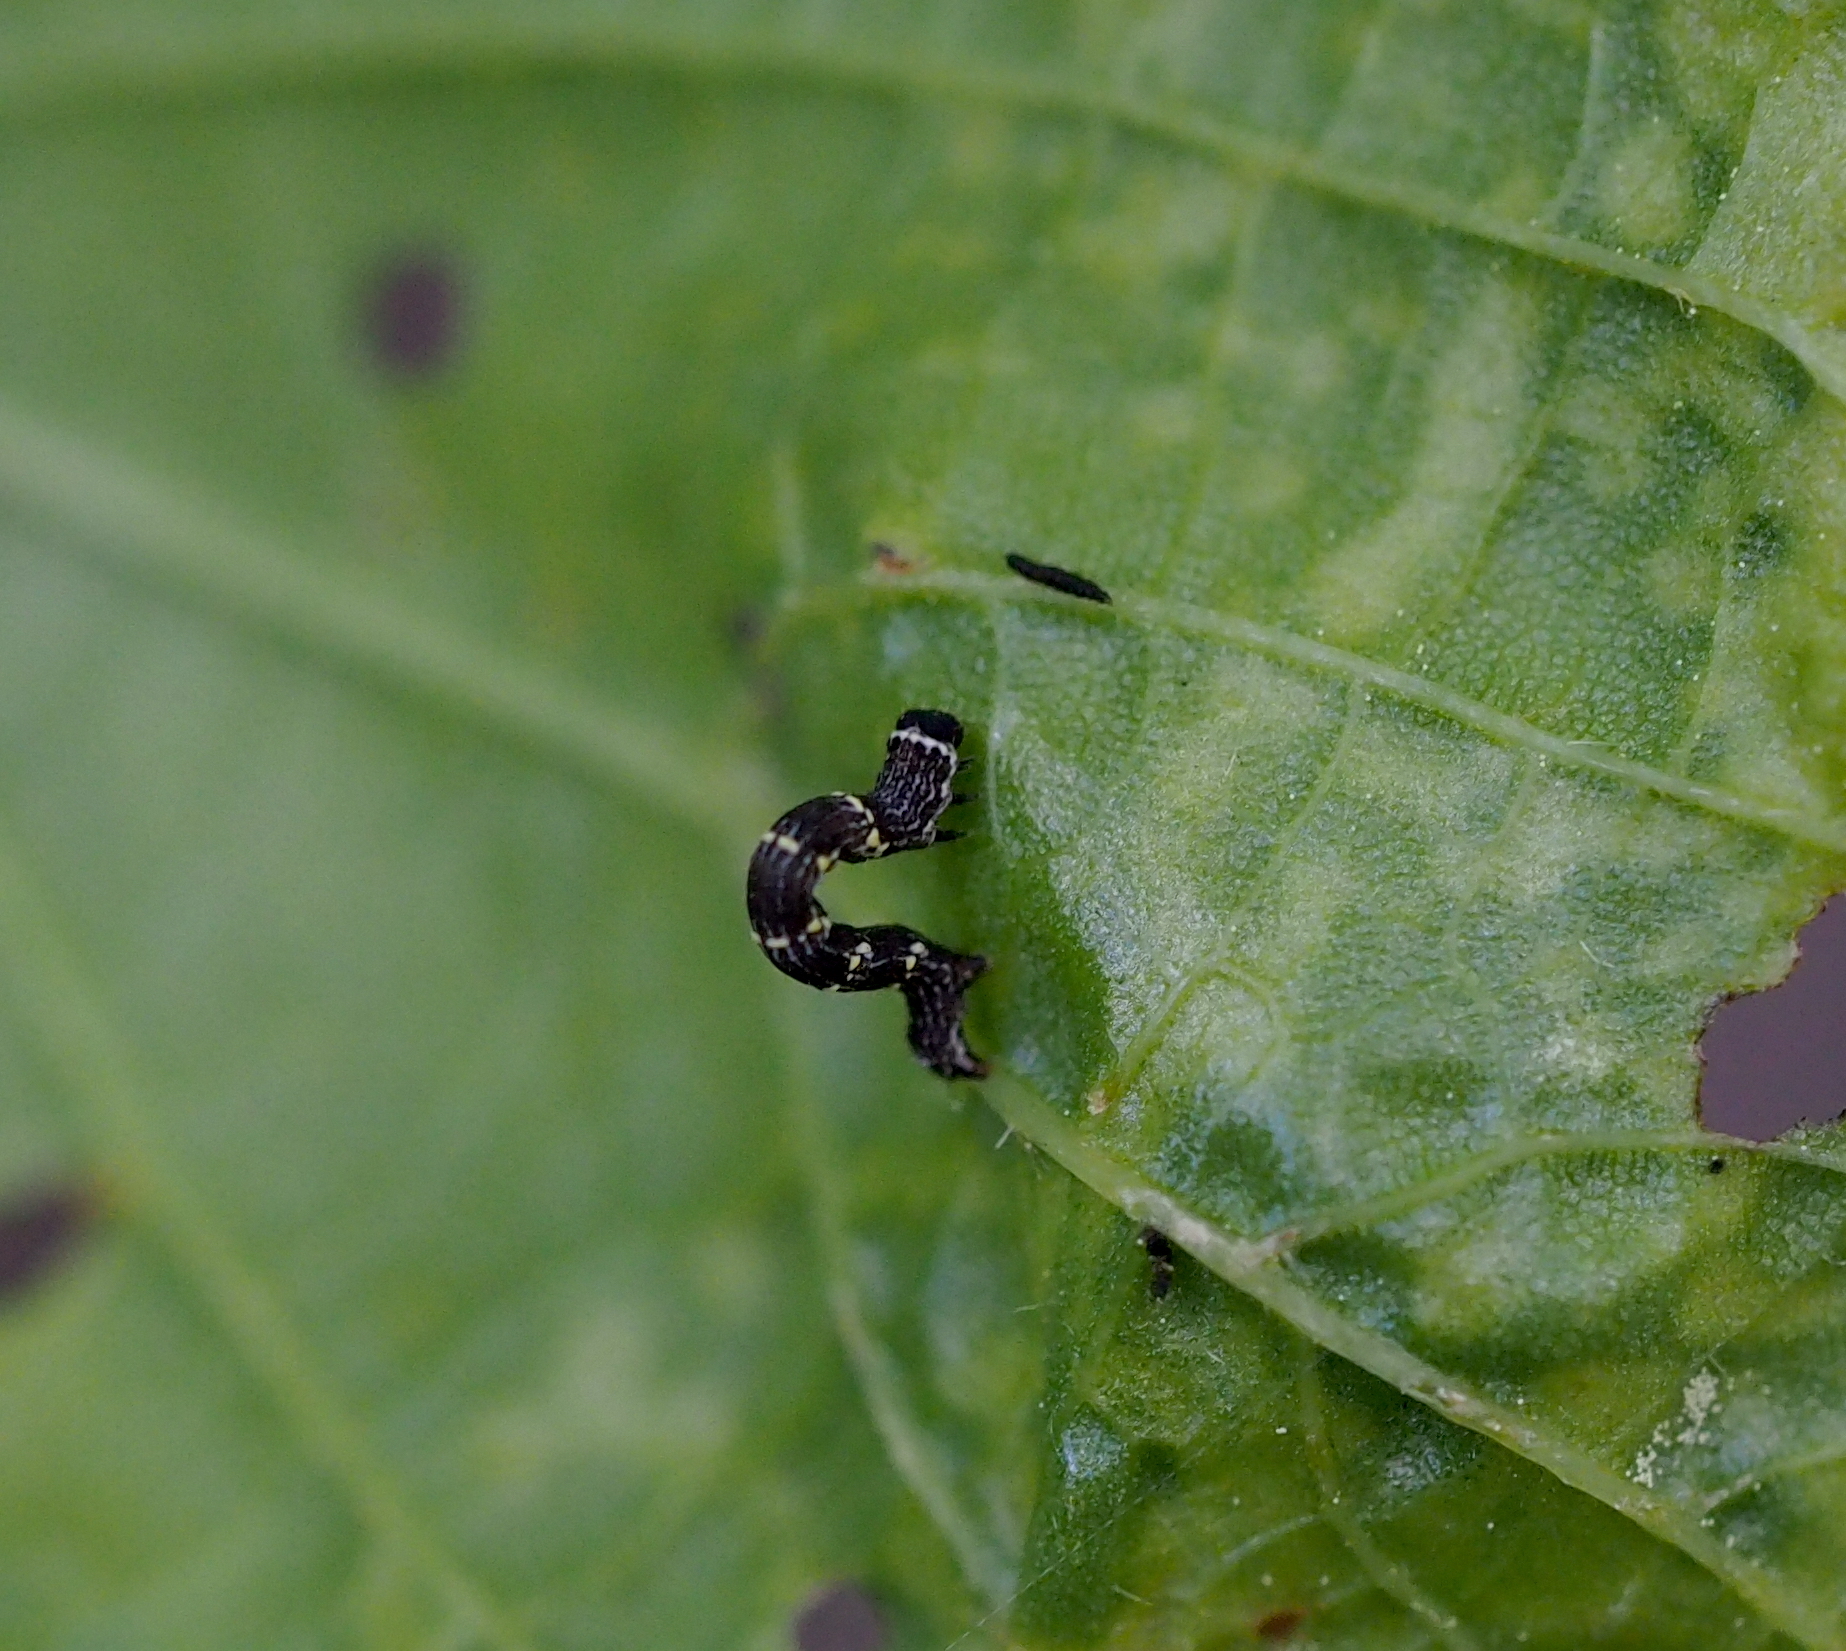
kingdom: Animalia
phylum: Arthropoda
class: Insecta
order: Lepidoptera
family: Geometridae
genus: Lycia
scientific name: Lycia hirtaria
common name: Brindled beauty
